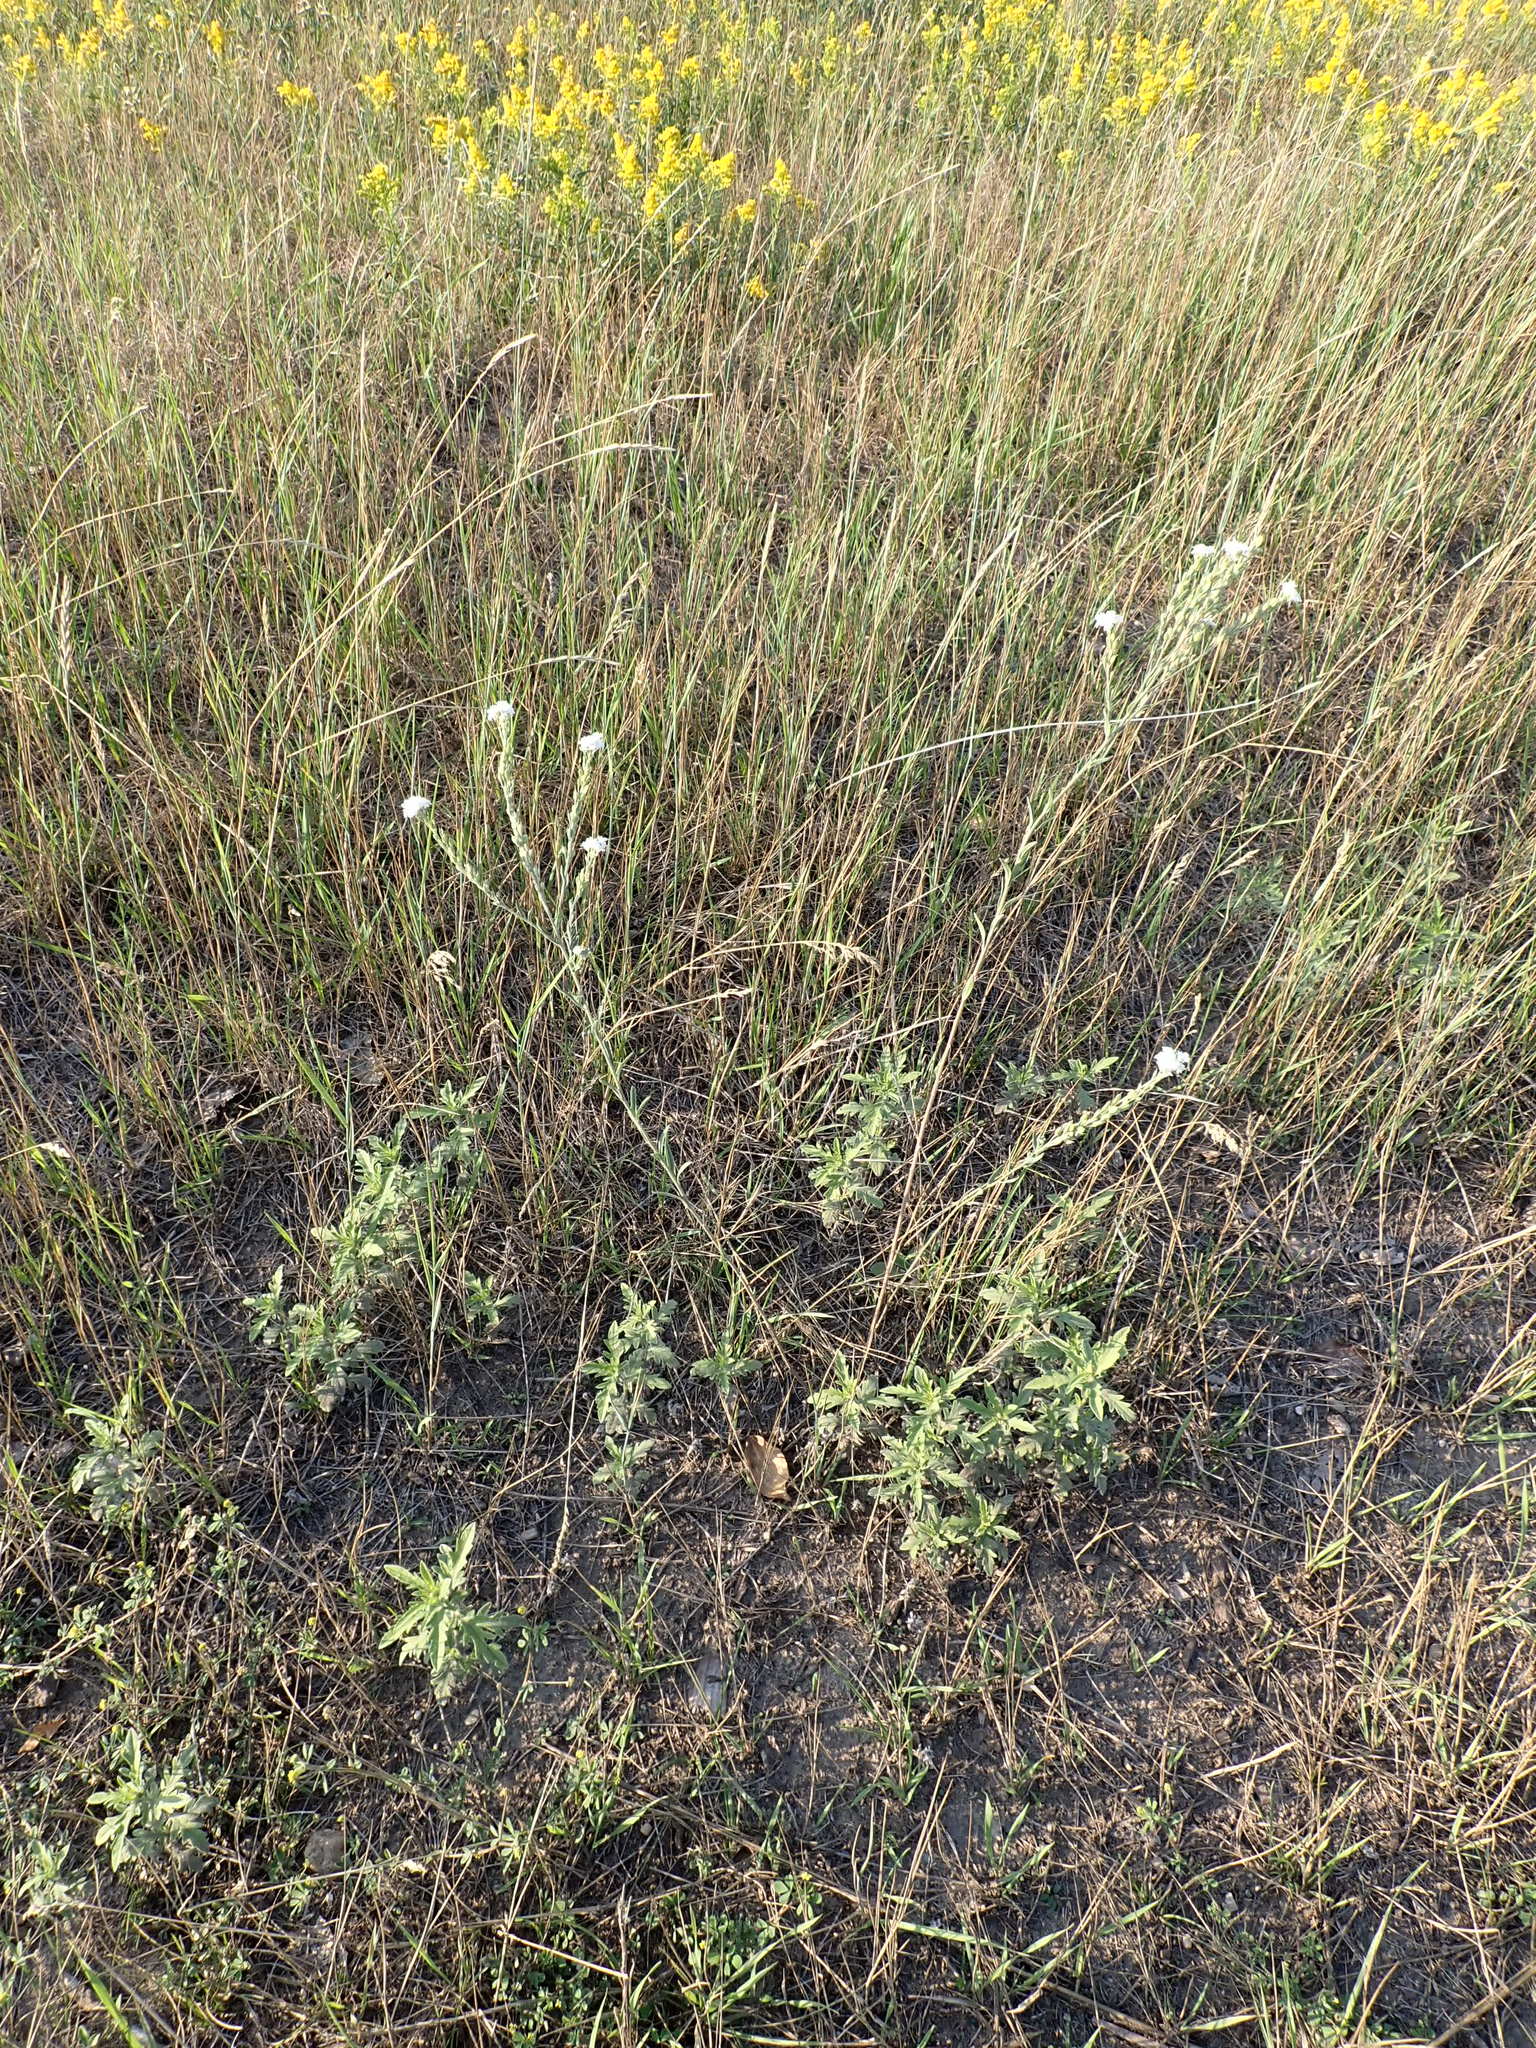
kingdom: Plantae
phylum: Tracheophyta
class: Magnoliopsida
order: Brassicales
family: Brassicaceae
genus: Berteroa
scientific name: Berteroa incana
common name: Hoary alison
